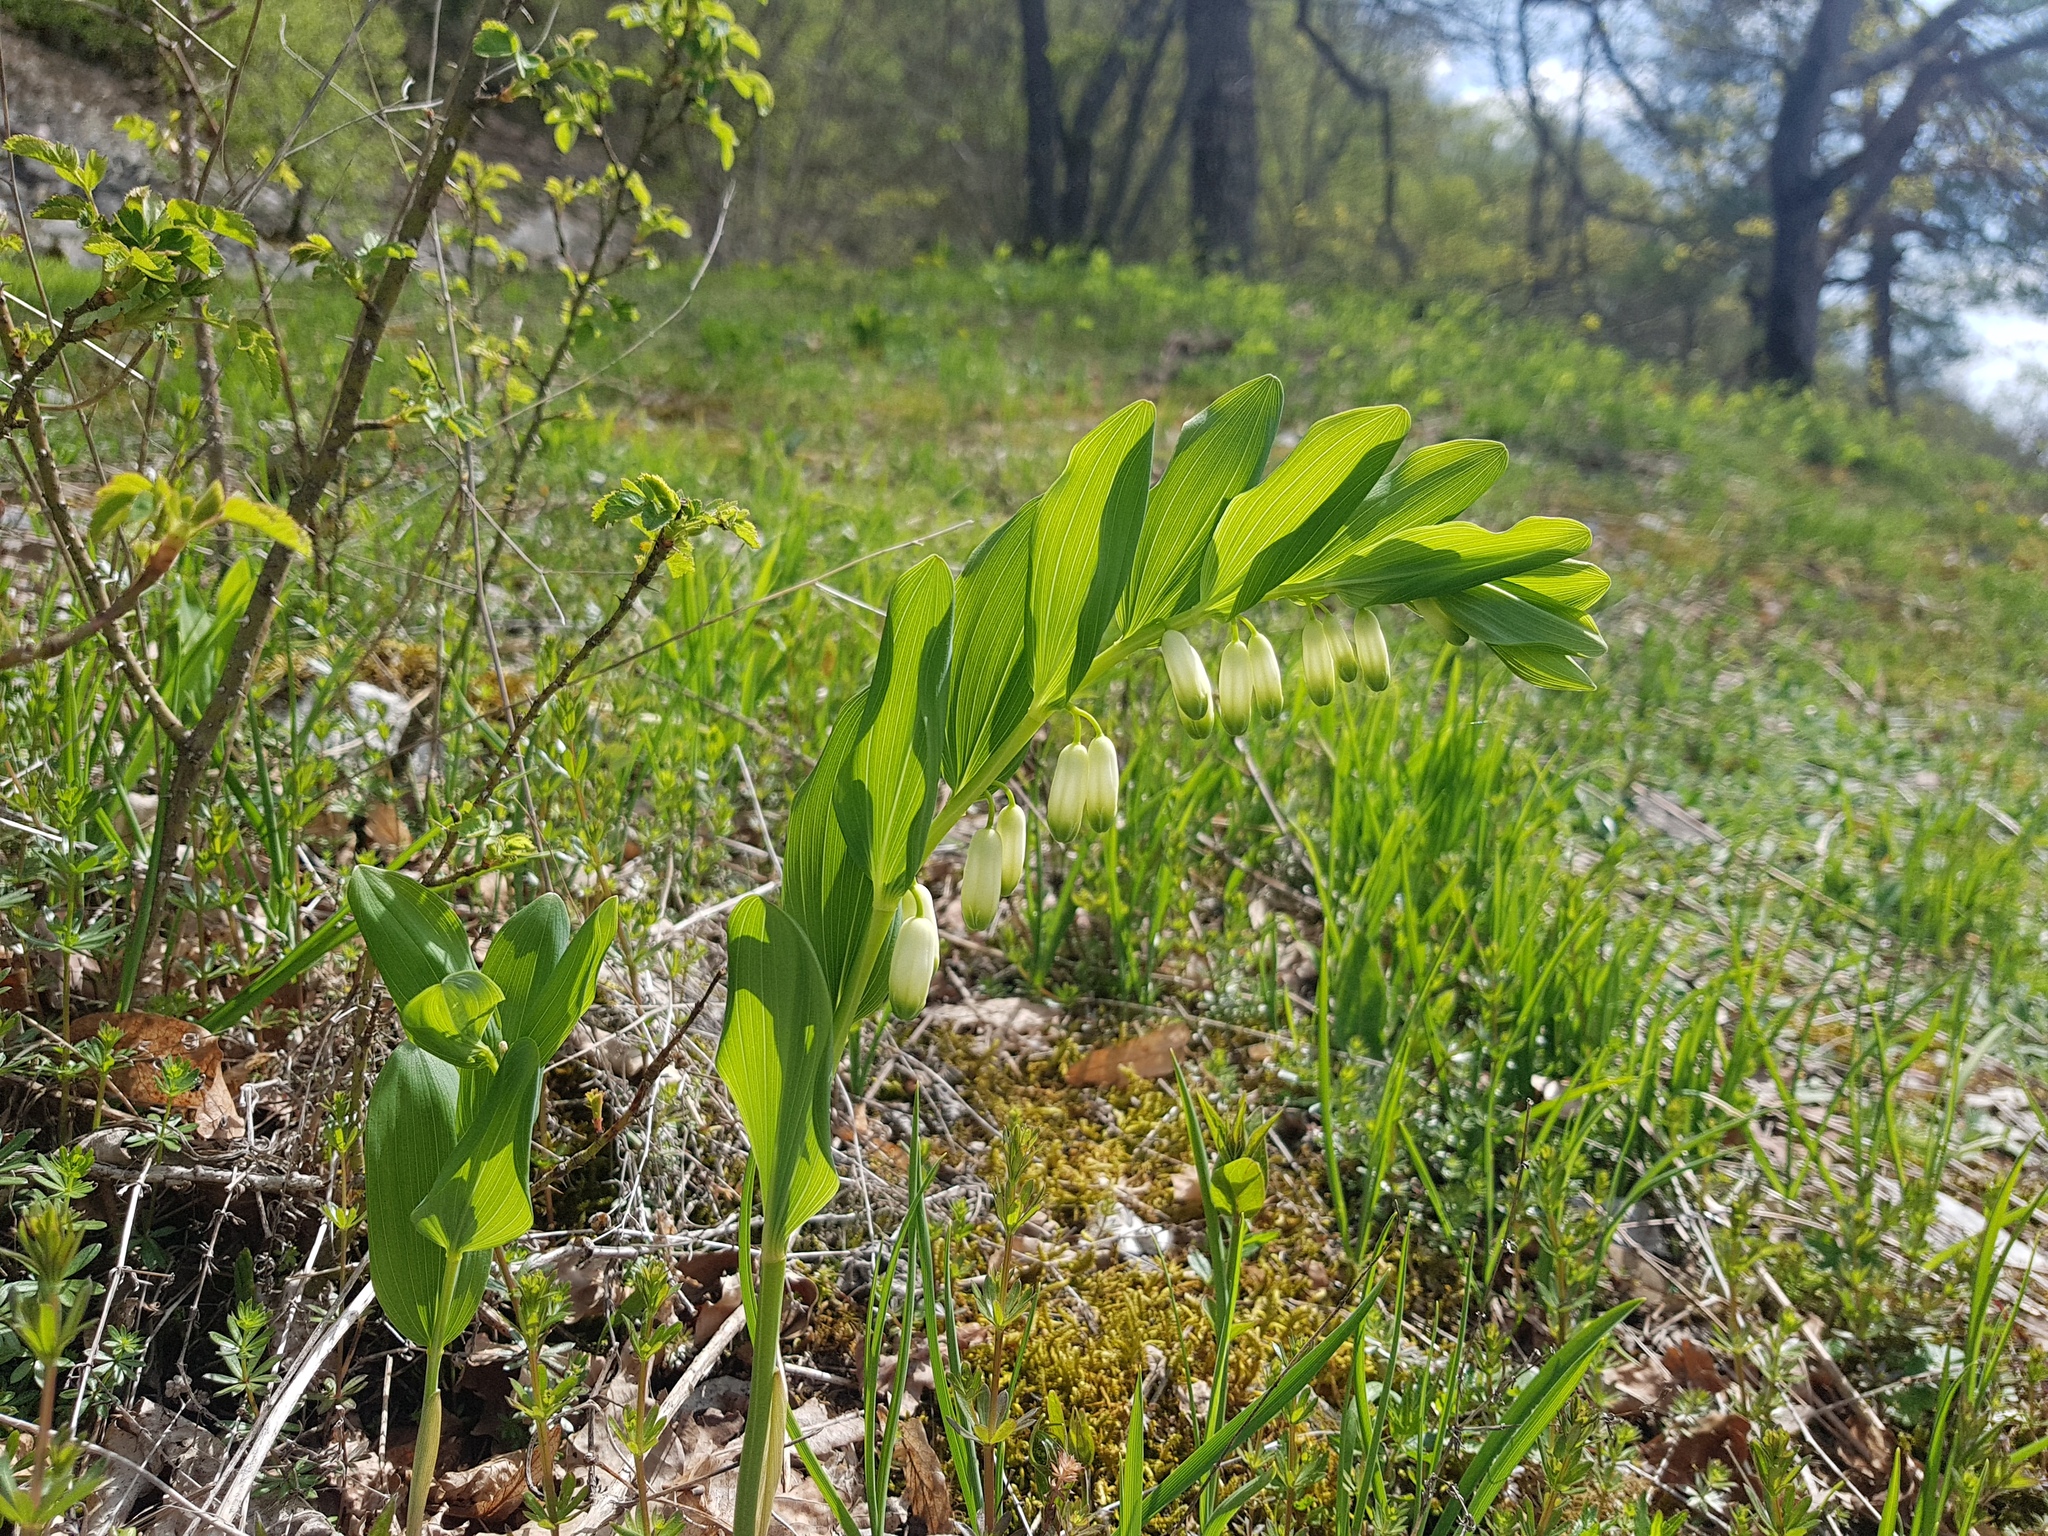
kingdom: Plantae
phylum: Tracheophyta
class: Liliopsida
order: Asparagales
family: Asparagaceae
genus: Polygonatum
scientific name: Polygonatum odoratum
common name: Angular solomon's-seal
